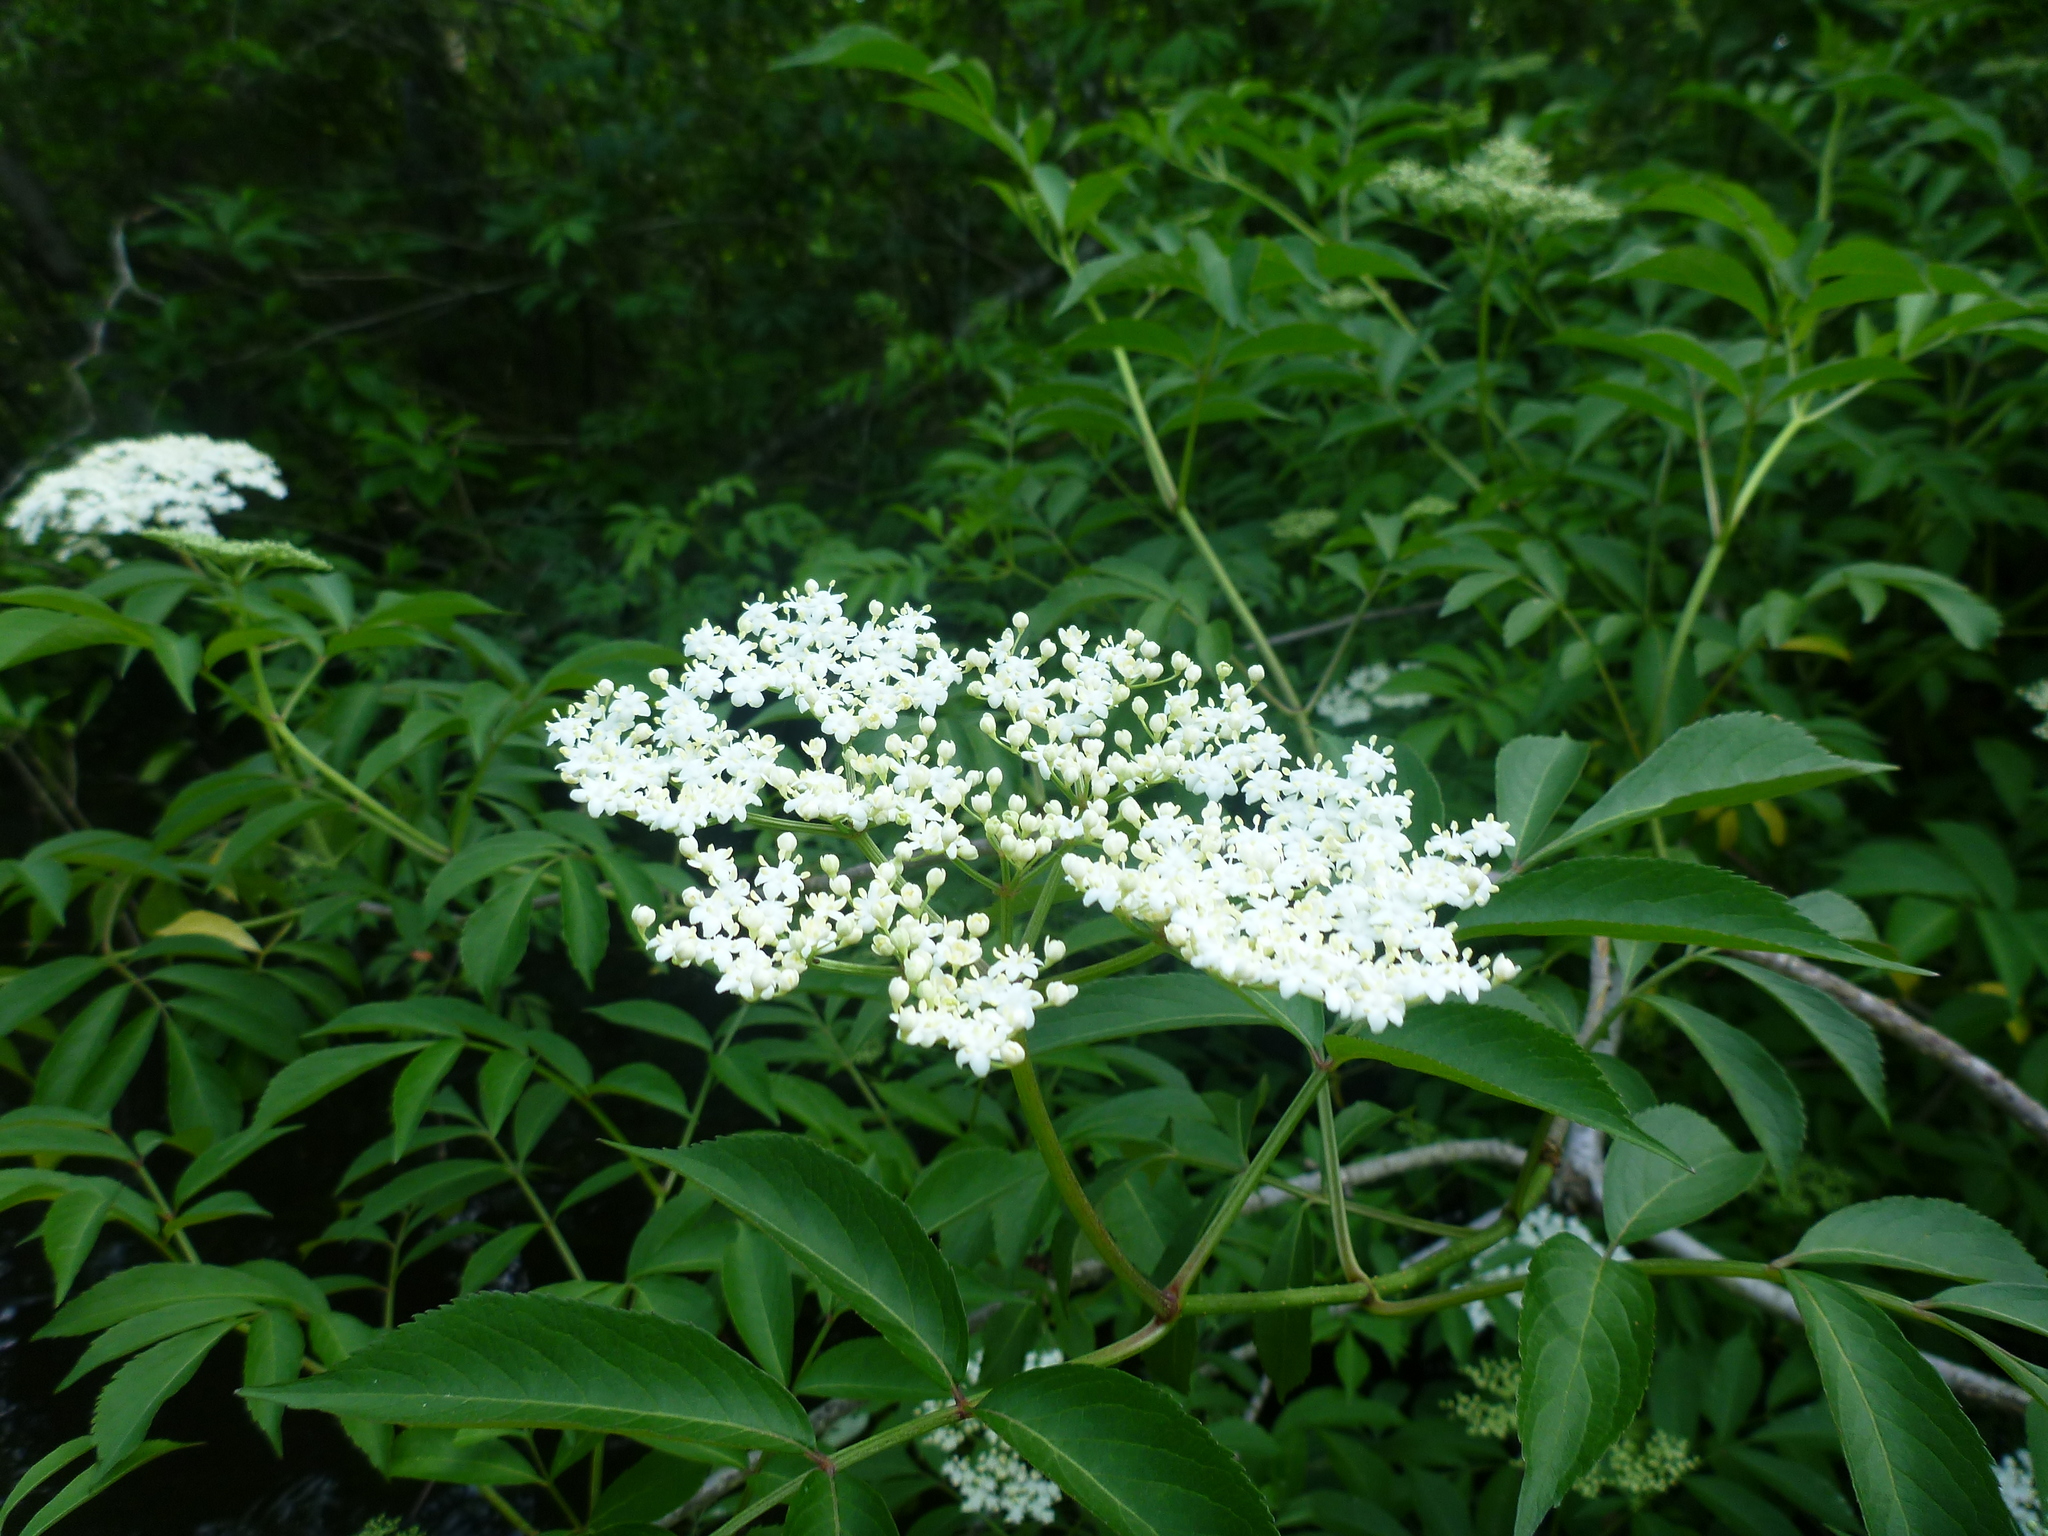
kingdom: Plantae
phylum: Tracheophyta
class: Magnoliopsida
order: Dipsacales
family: Viburnaceae
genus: Sambucus
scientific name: Sambucus canadensis
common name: American elder
